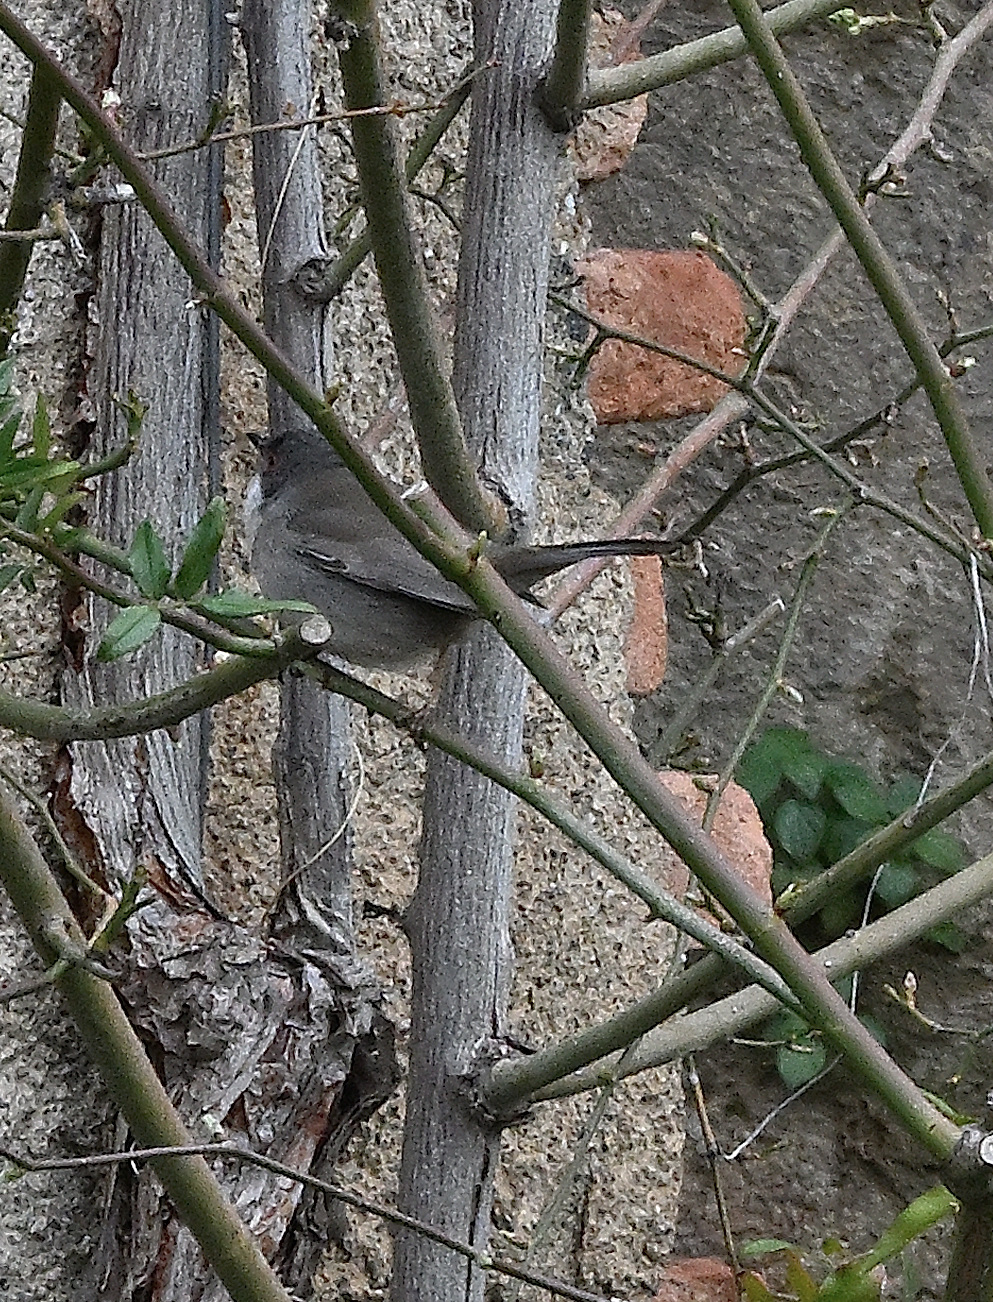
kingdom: Animalia
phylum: Chordata
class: Aves
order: Passeriformes
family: Sylviidae
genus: Curruca
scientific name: Curruca melanocephala
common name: Sardinian warbler
